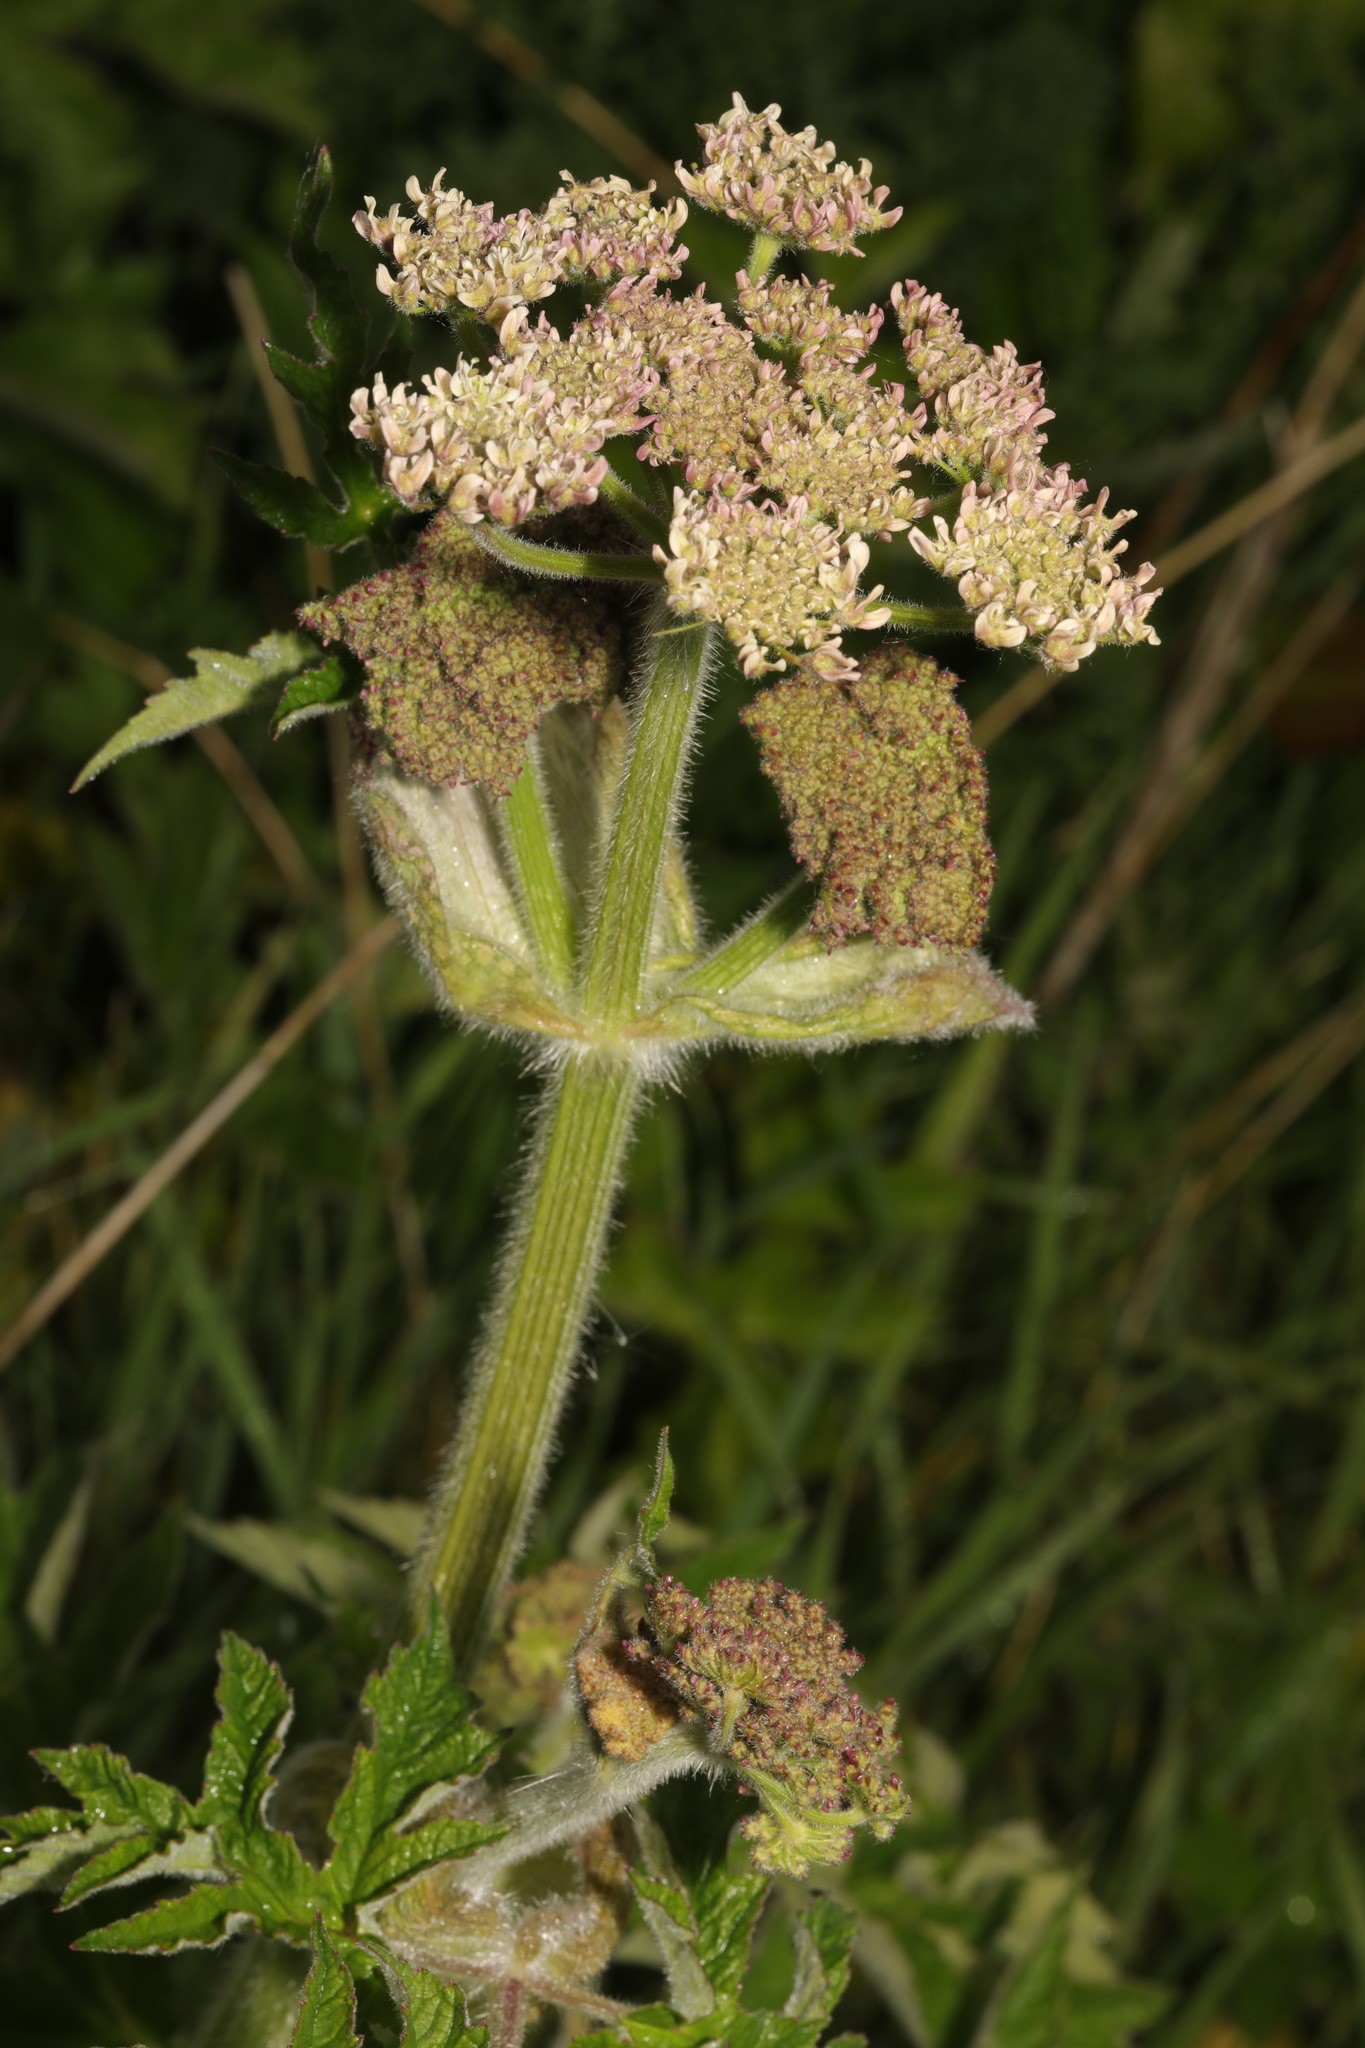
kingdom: Plantae
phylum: Tracheophyta
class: Magnoliopsida
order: Apiales
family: Apiaceae
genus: Heracleum
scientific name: Heracleum sphondylium
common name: Hogweed
